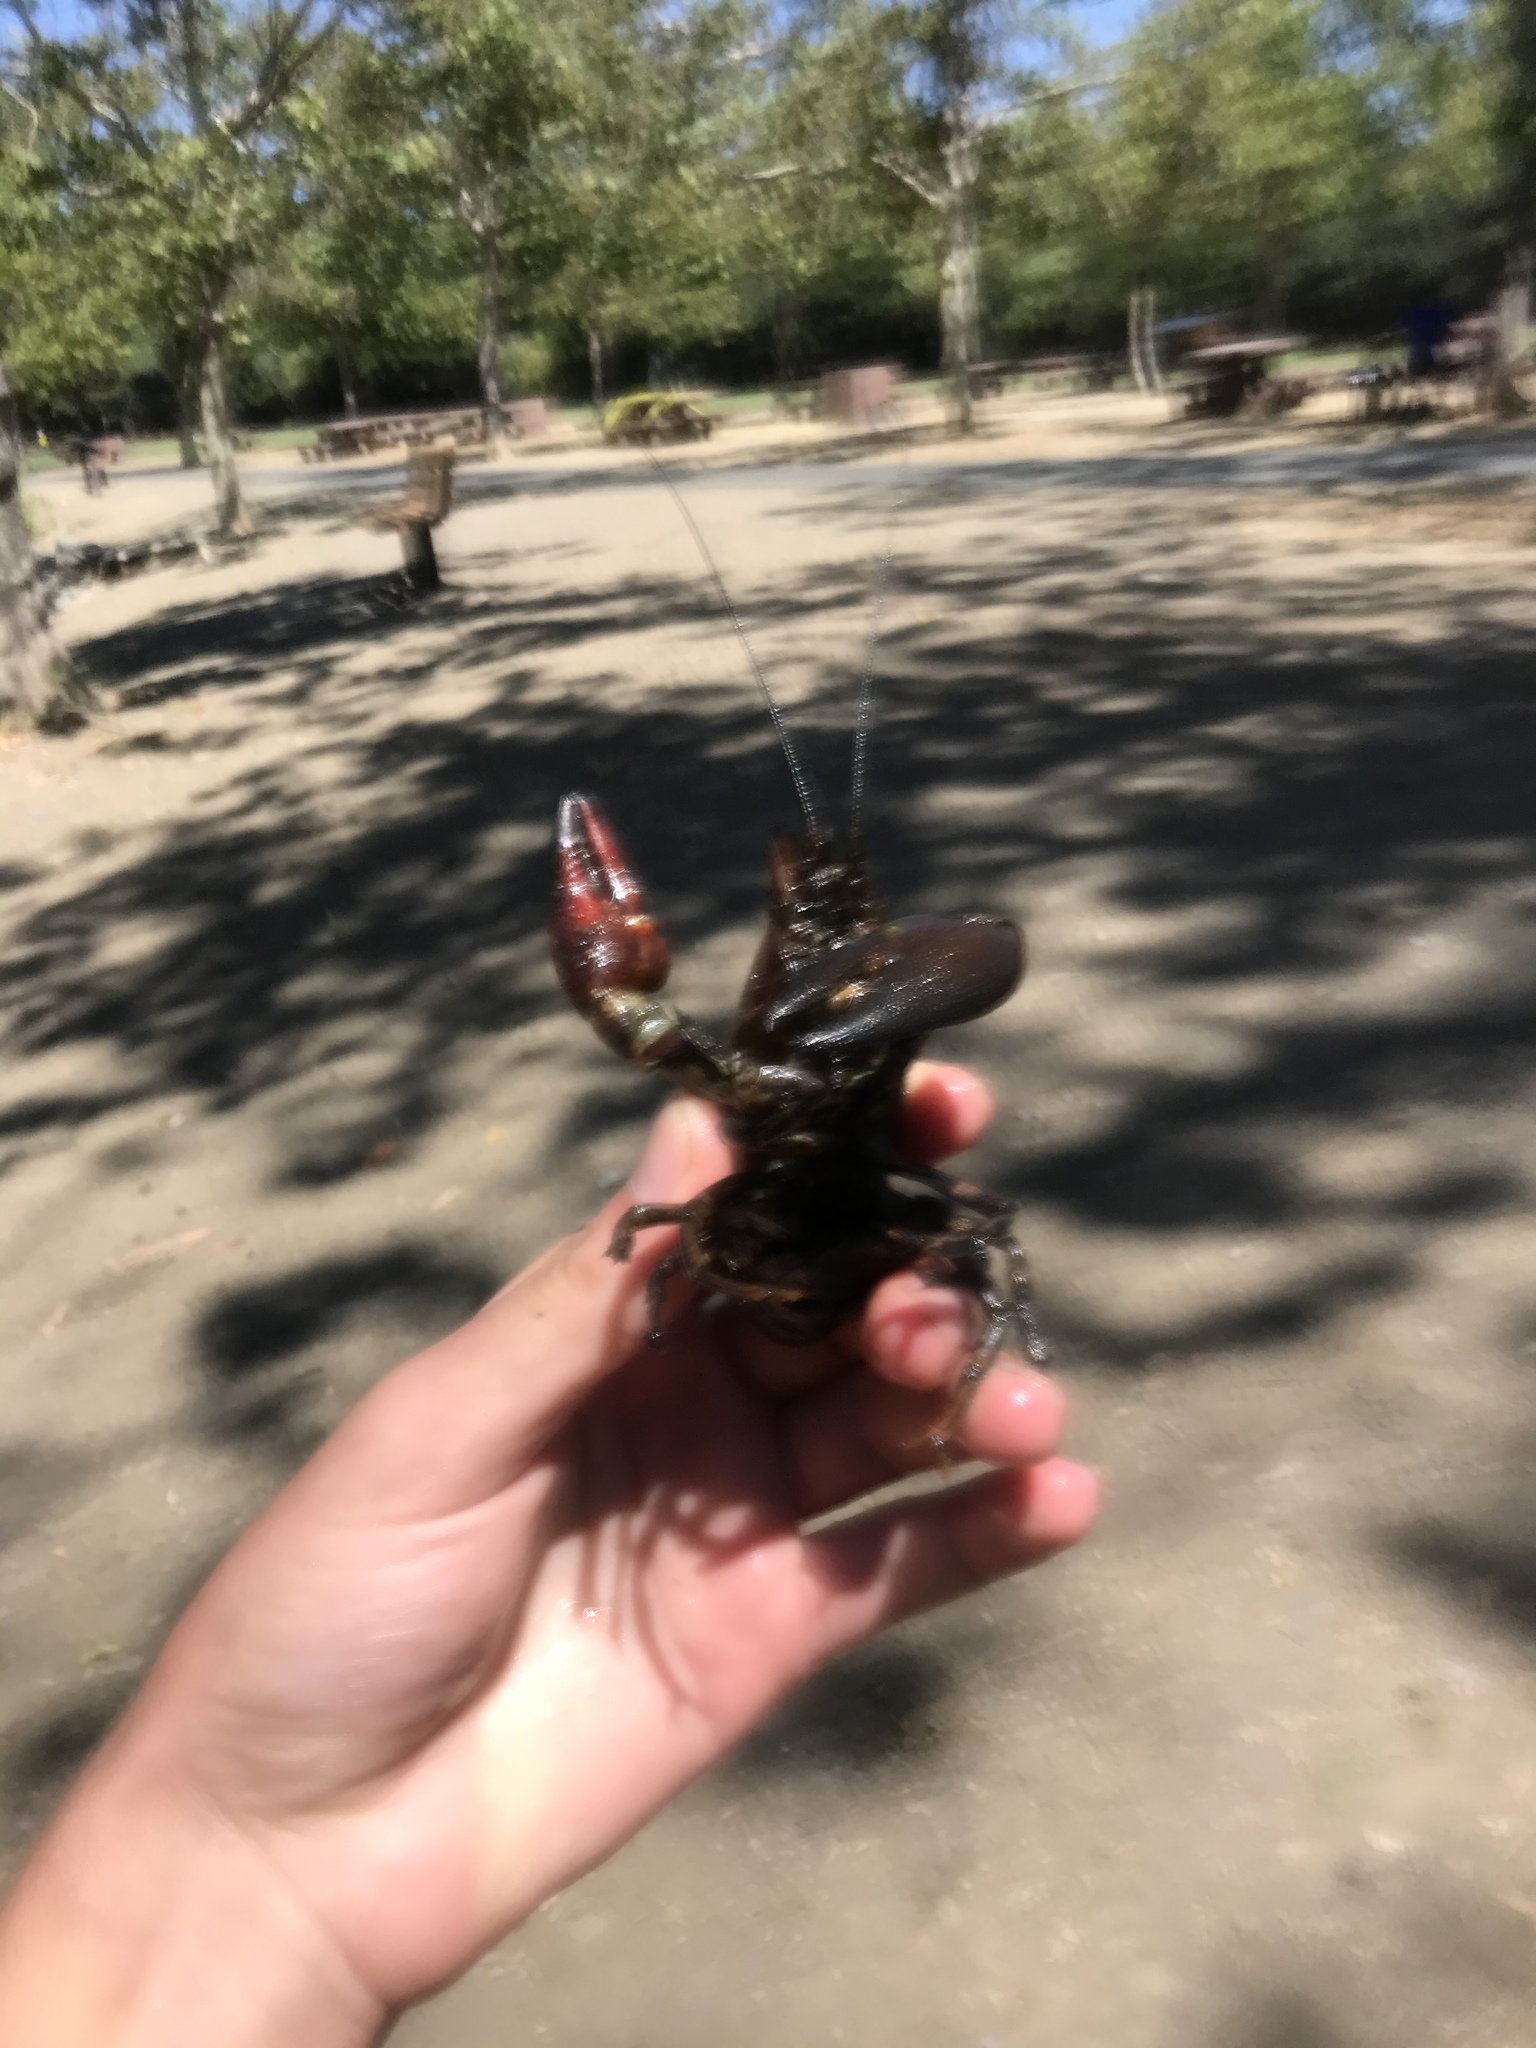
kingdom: Animalia
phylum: Arthropoda
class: Malacostraca
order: Decapoda
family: Astacidae
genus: Pacifastacus
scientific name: Pacifastacus leniusculus
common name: Signal crayfish
